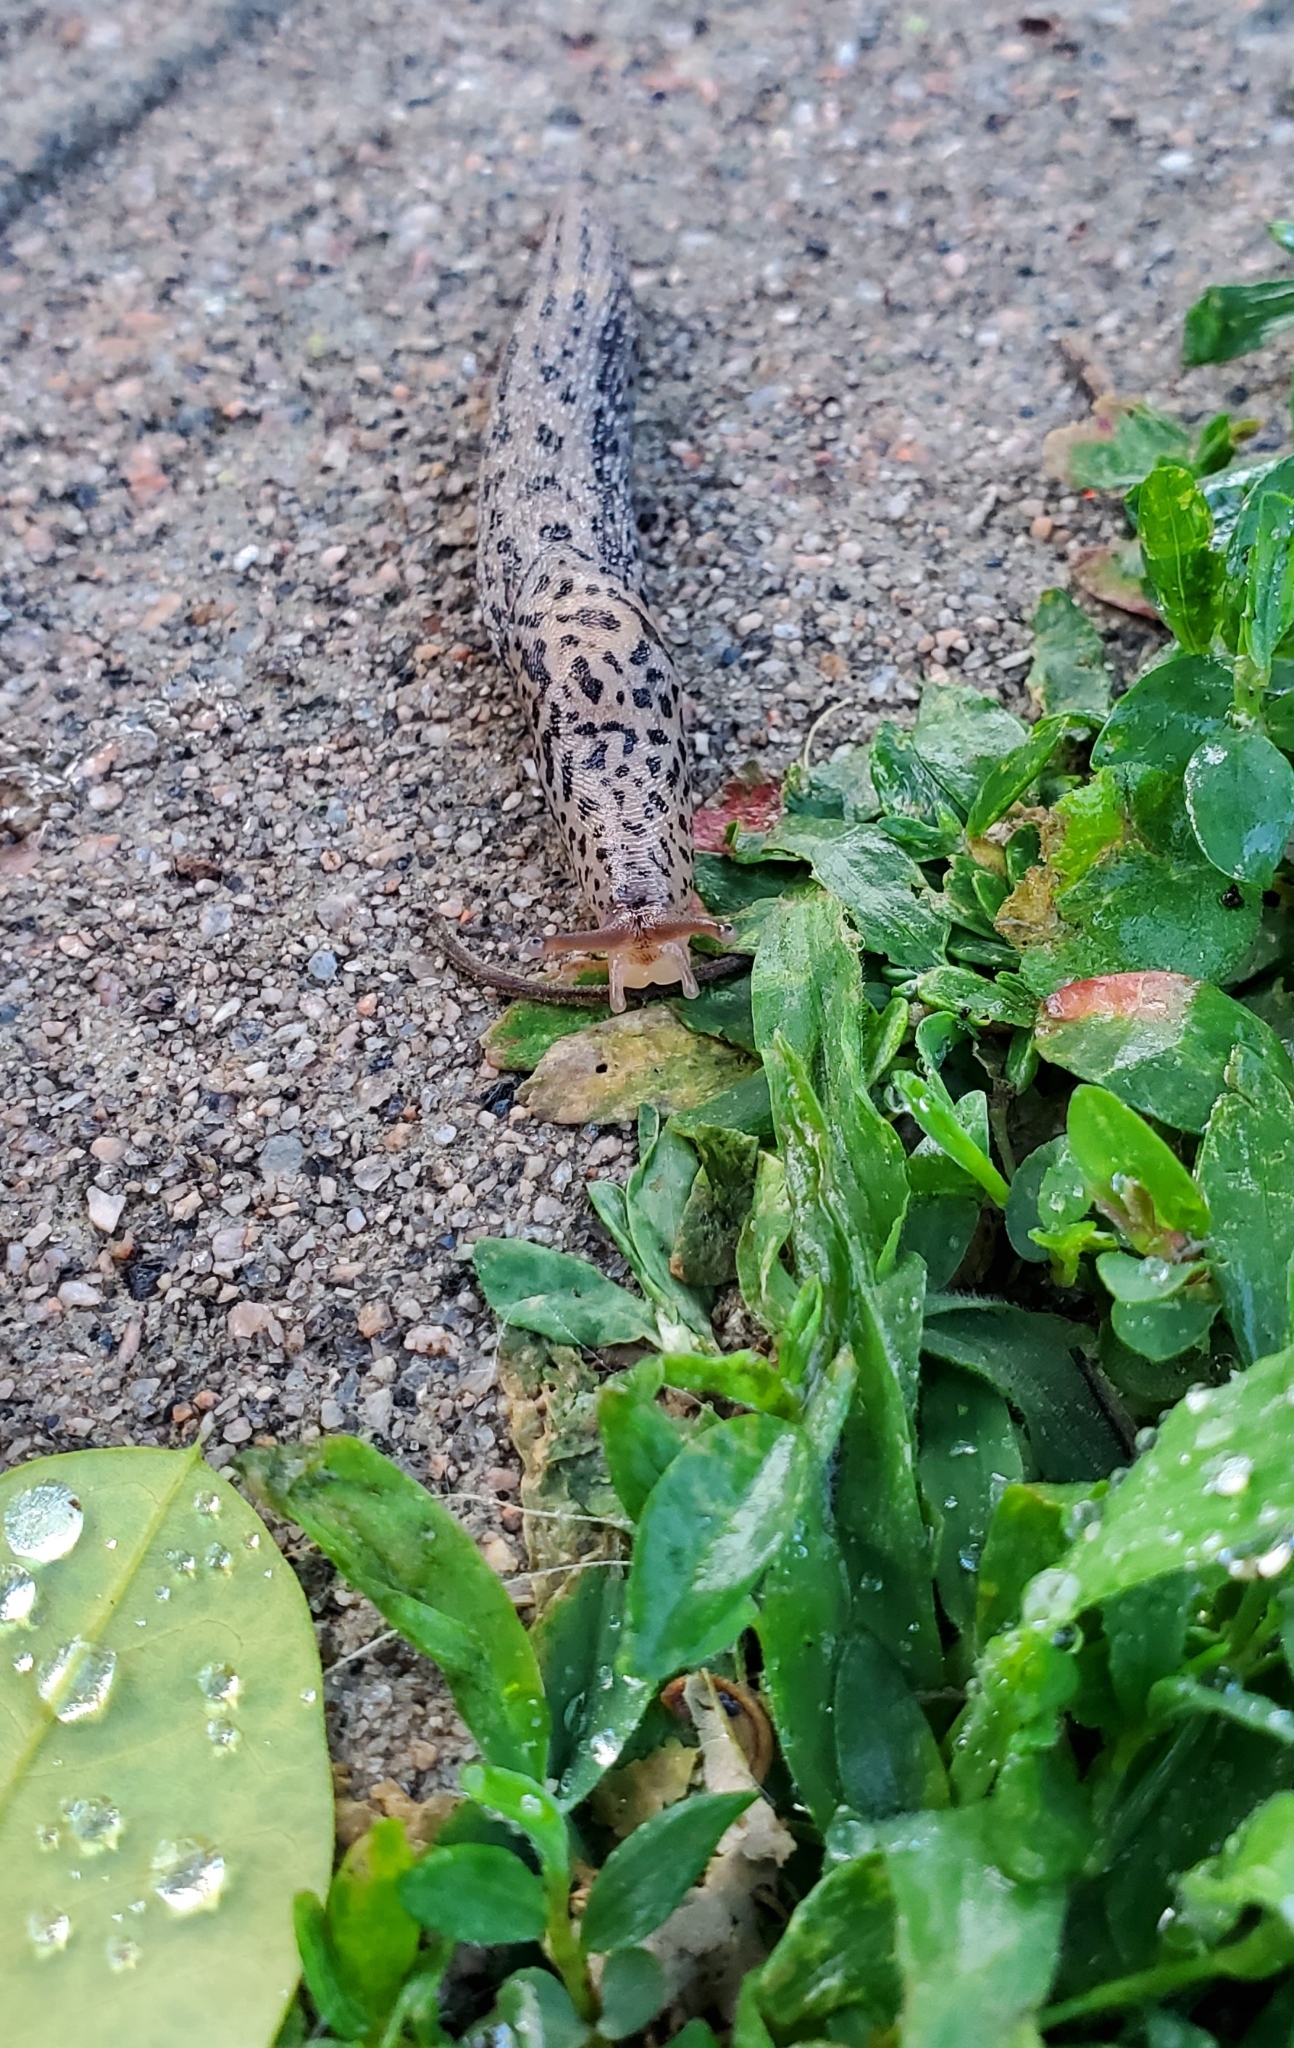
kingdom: Animalia
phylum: Mollusca
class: Gastropoda
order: Stylommatophora
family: Limacidae
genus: Limax
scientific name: Limax maximus
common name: Great grey slug
